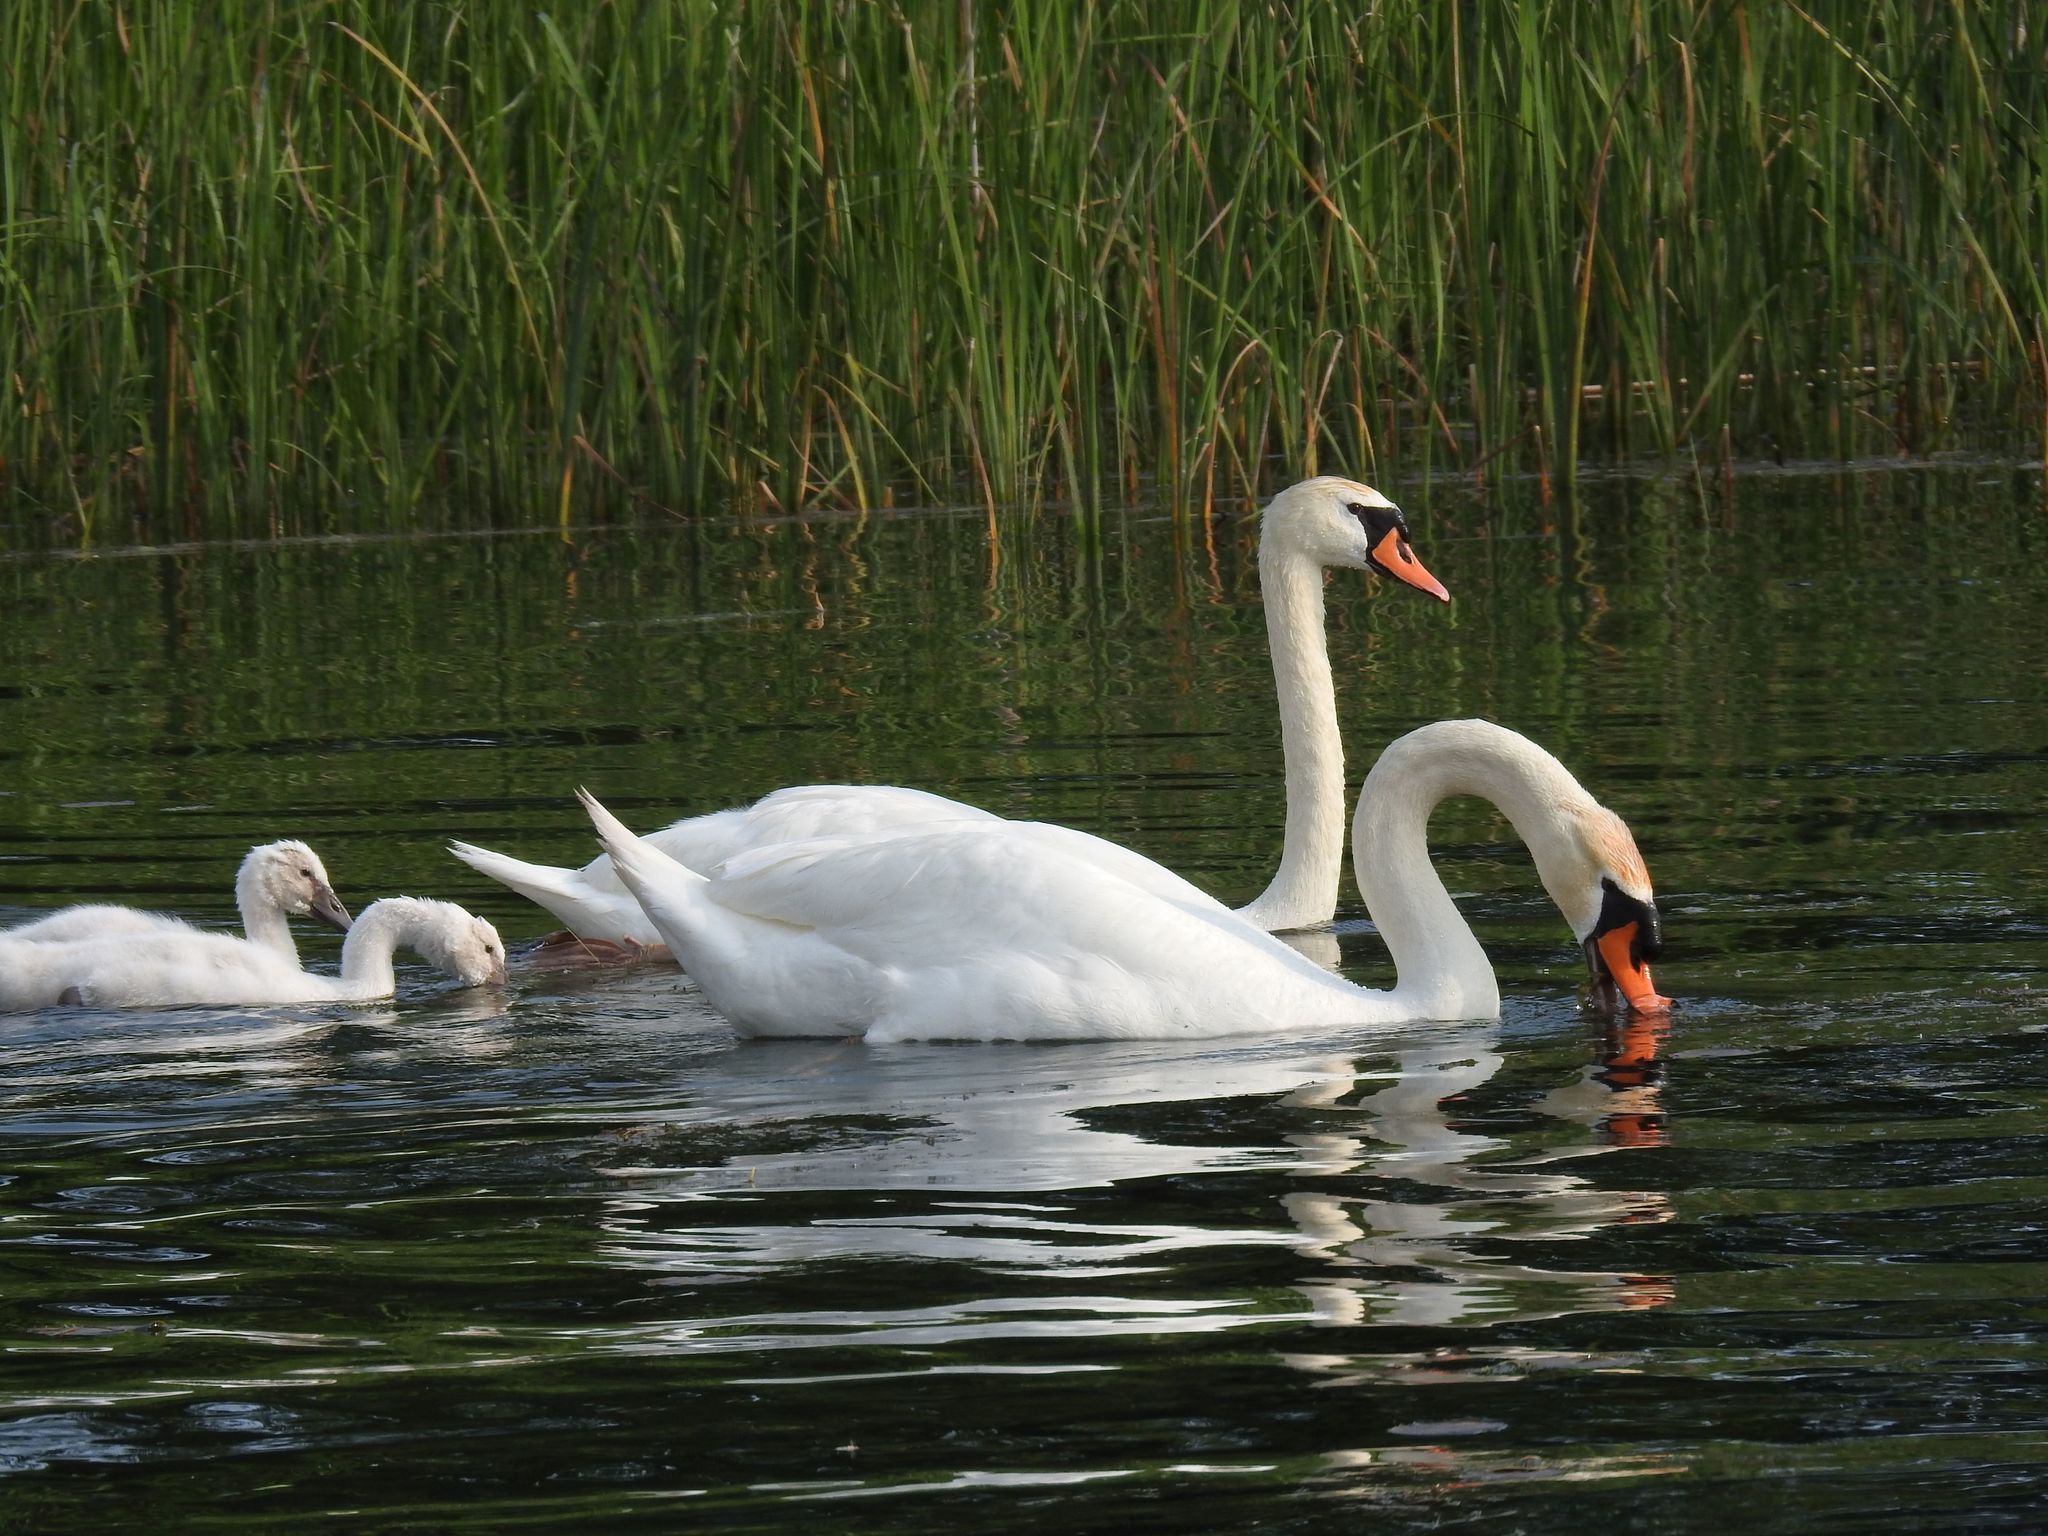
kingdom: Animalia
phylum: Chordata
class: Aves
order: Anseriformes
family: Anatidae
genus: Cygnus
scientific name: Cygnus olor
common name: Mute swan
